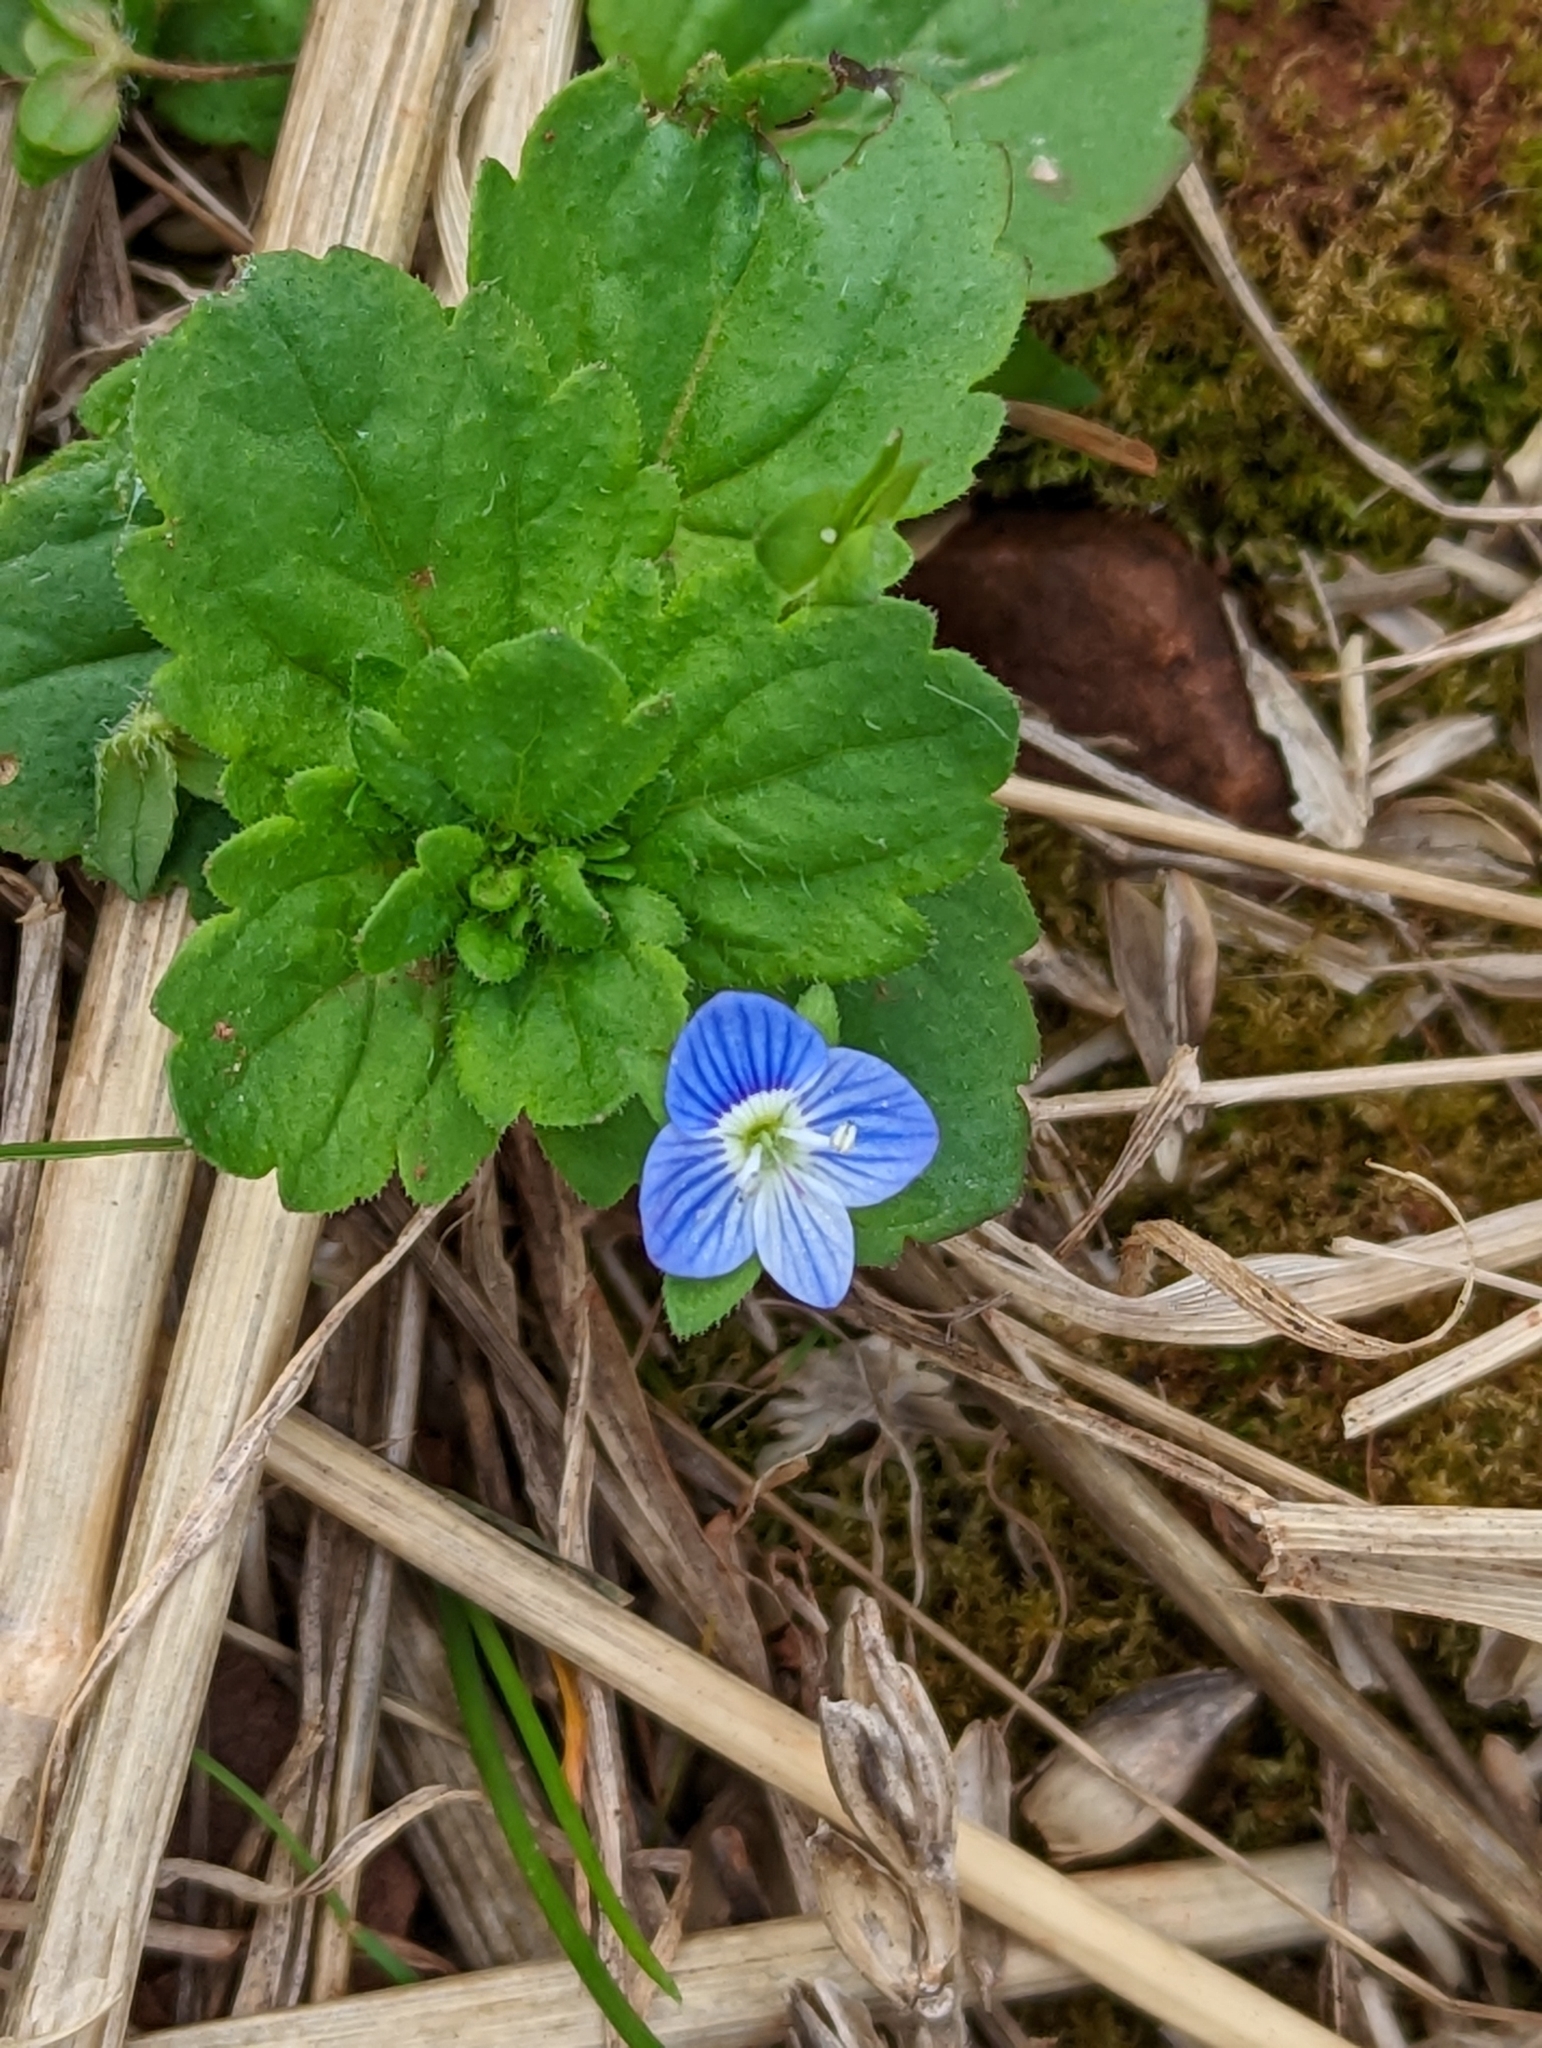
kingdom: Plantae
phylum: Tracheophyta
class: Magnoliopsida
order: Lamiales
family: Plantaginaceae
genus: Veronica
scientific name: Veronica persica
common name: Common field-speedwell
